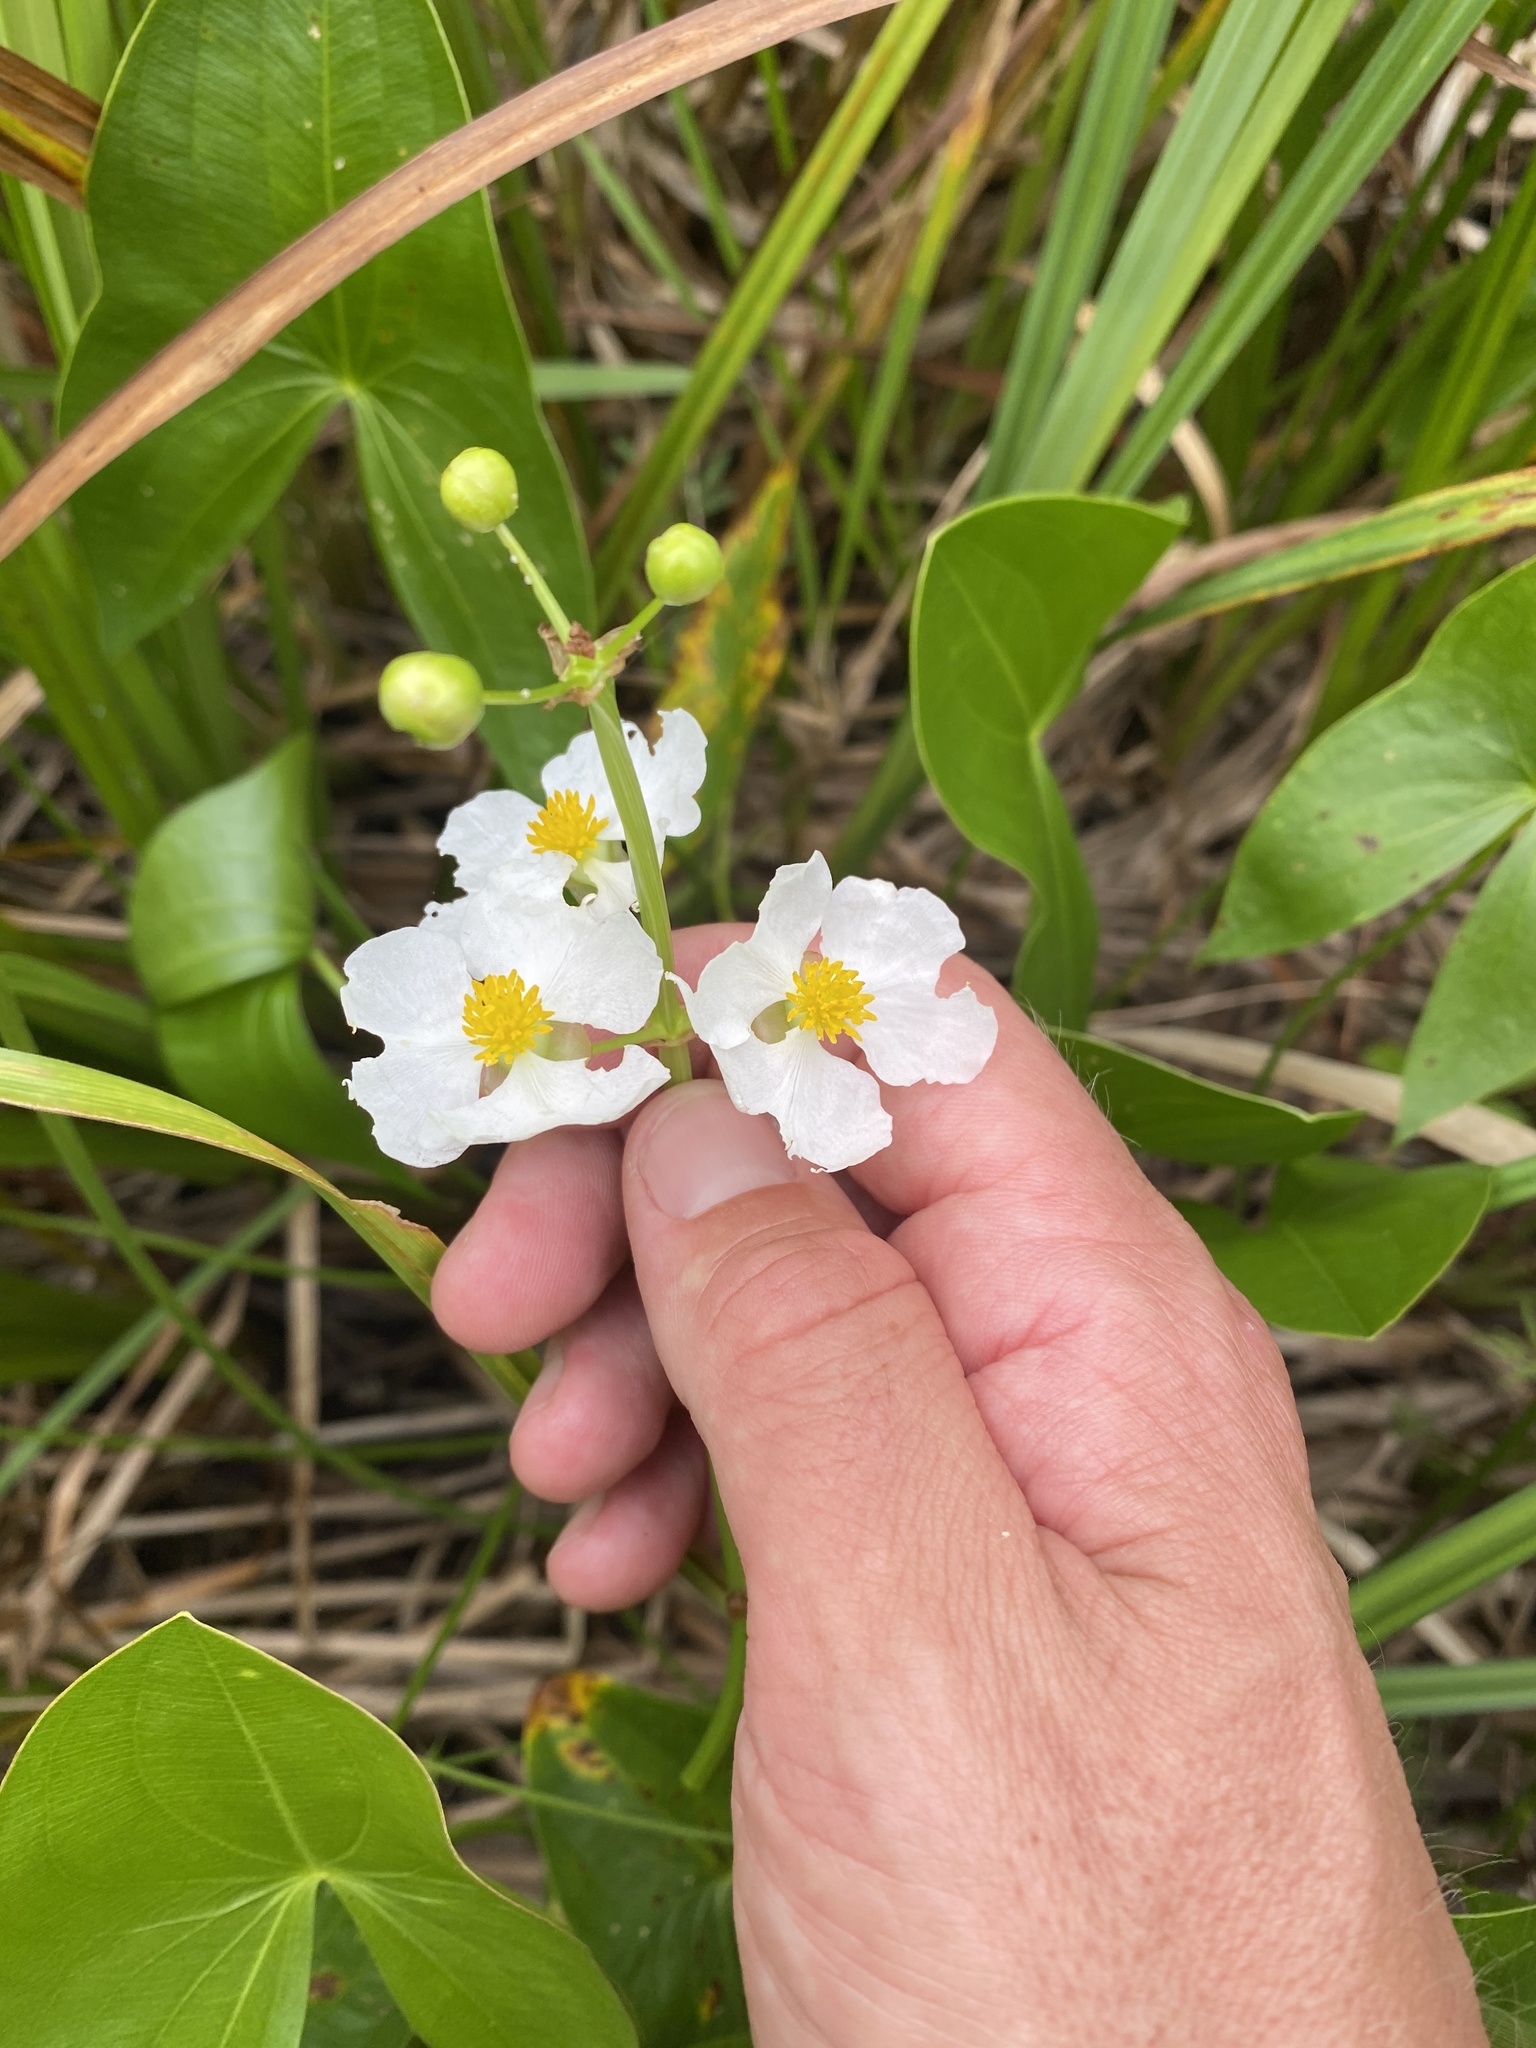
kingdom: Plantae
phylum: Tracheophyta
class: Liliopsida
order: Alismatales
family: Alismataceae
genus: Sagittaria
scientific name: Sagittaria latifolia
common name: Duck-potato
